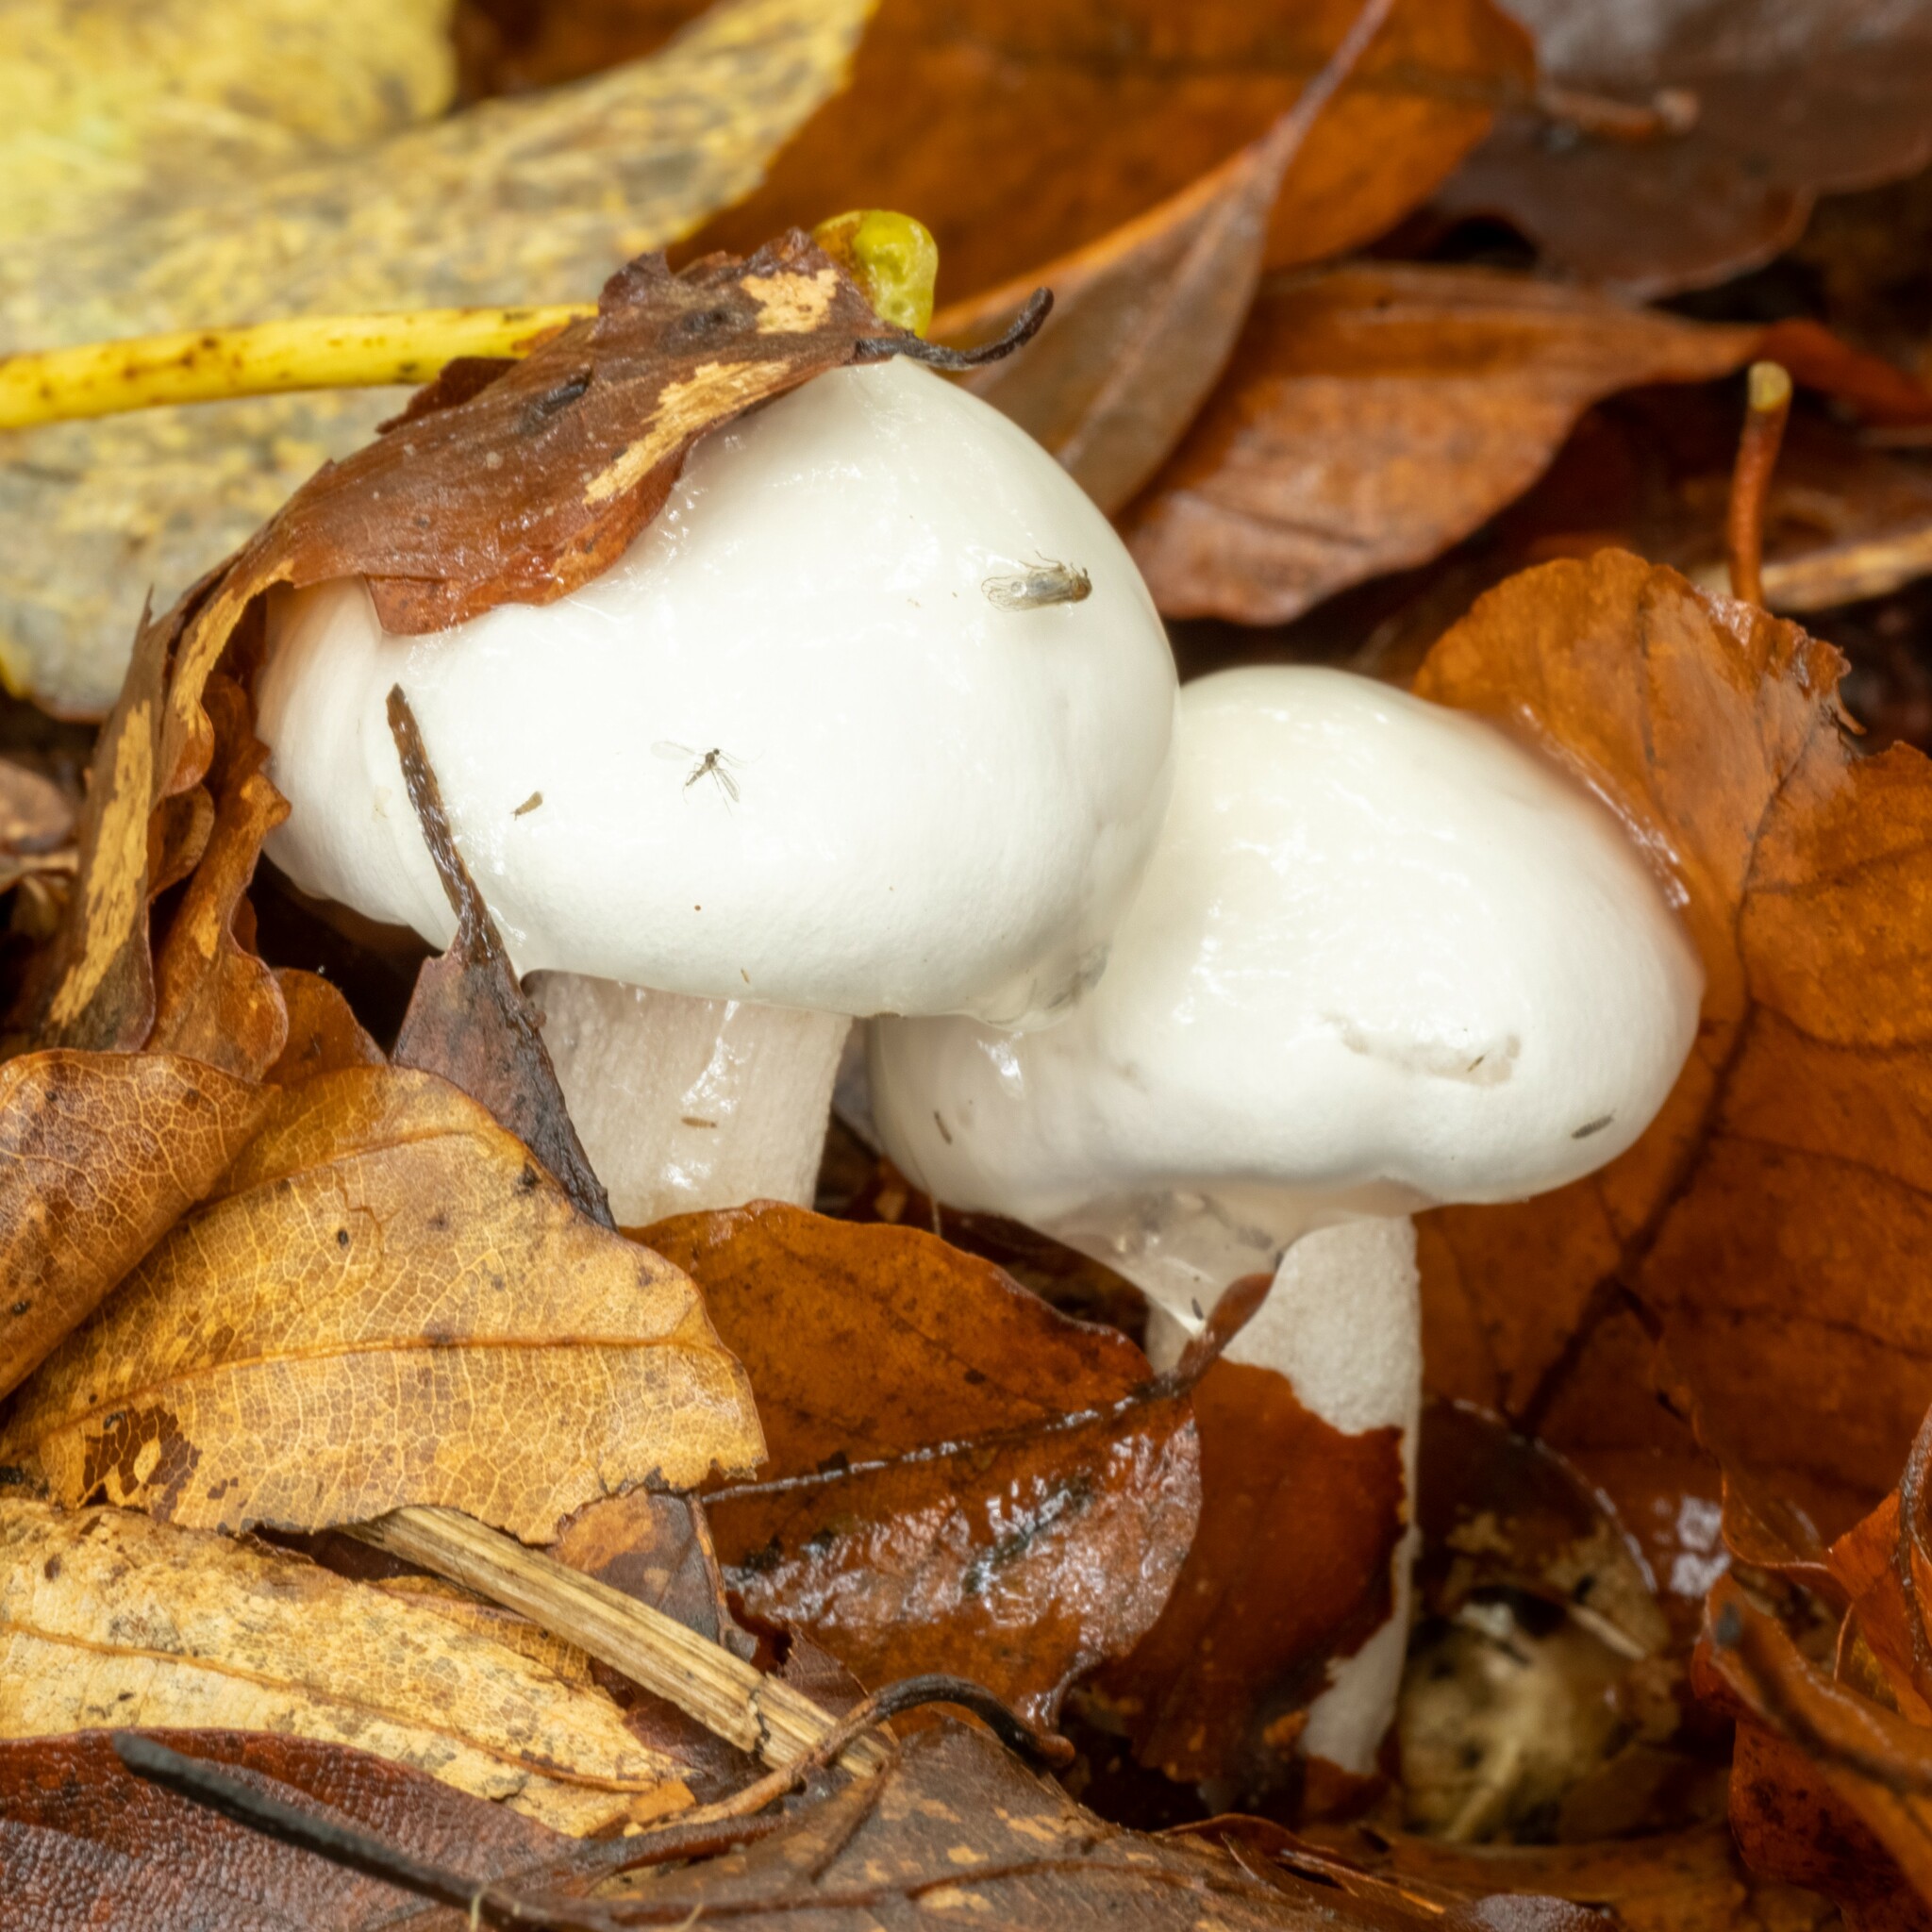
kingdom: Fungi
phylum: Basidiomycota
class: Agaricomycetes
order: Agaricales
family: Hygrophoraceae
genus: Hygrophorus
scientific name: Hygrophorus eburneus
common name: Ivory wax-cap
